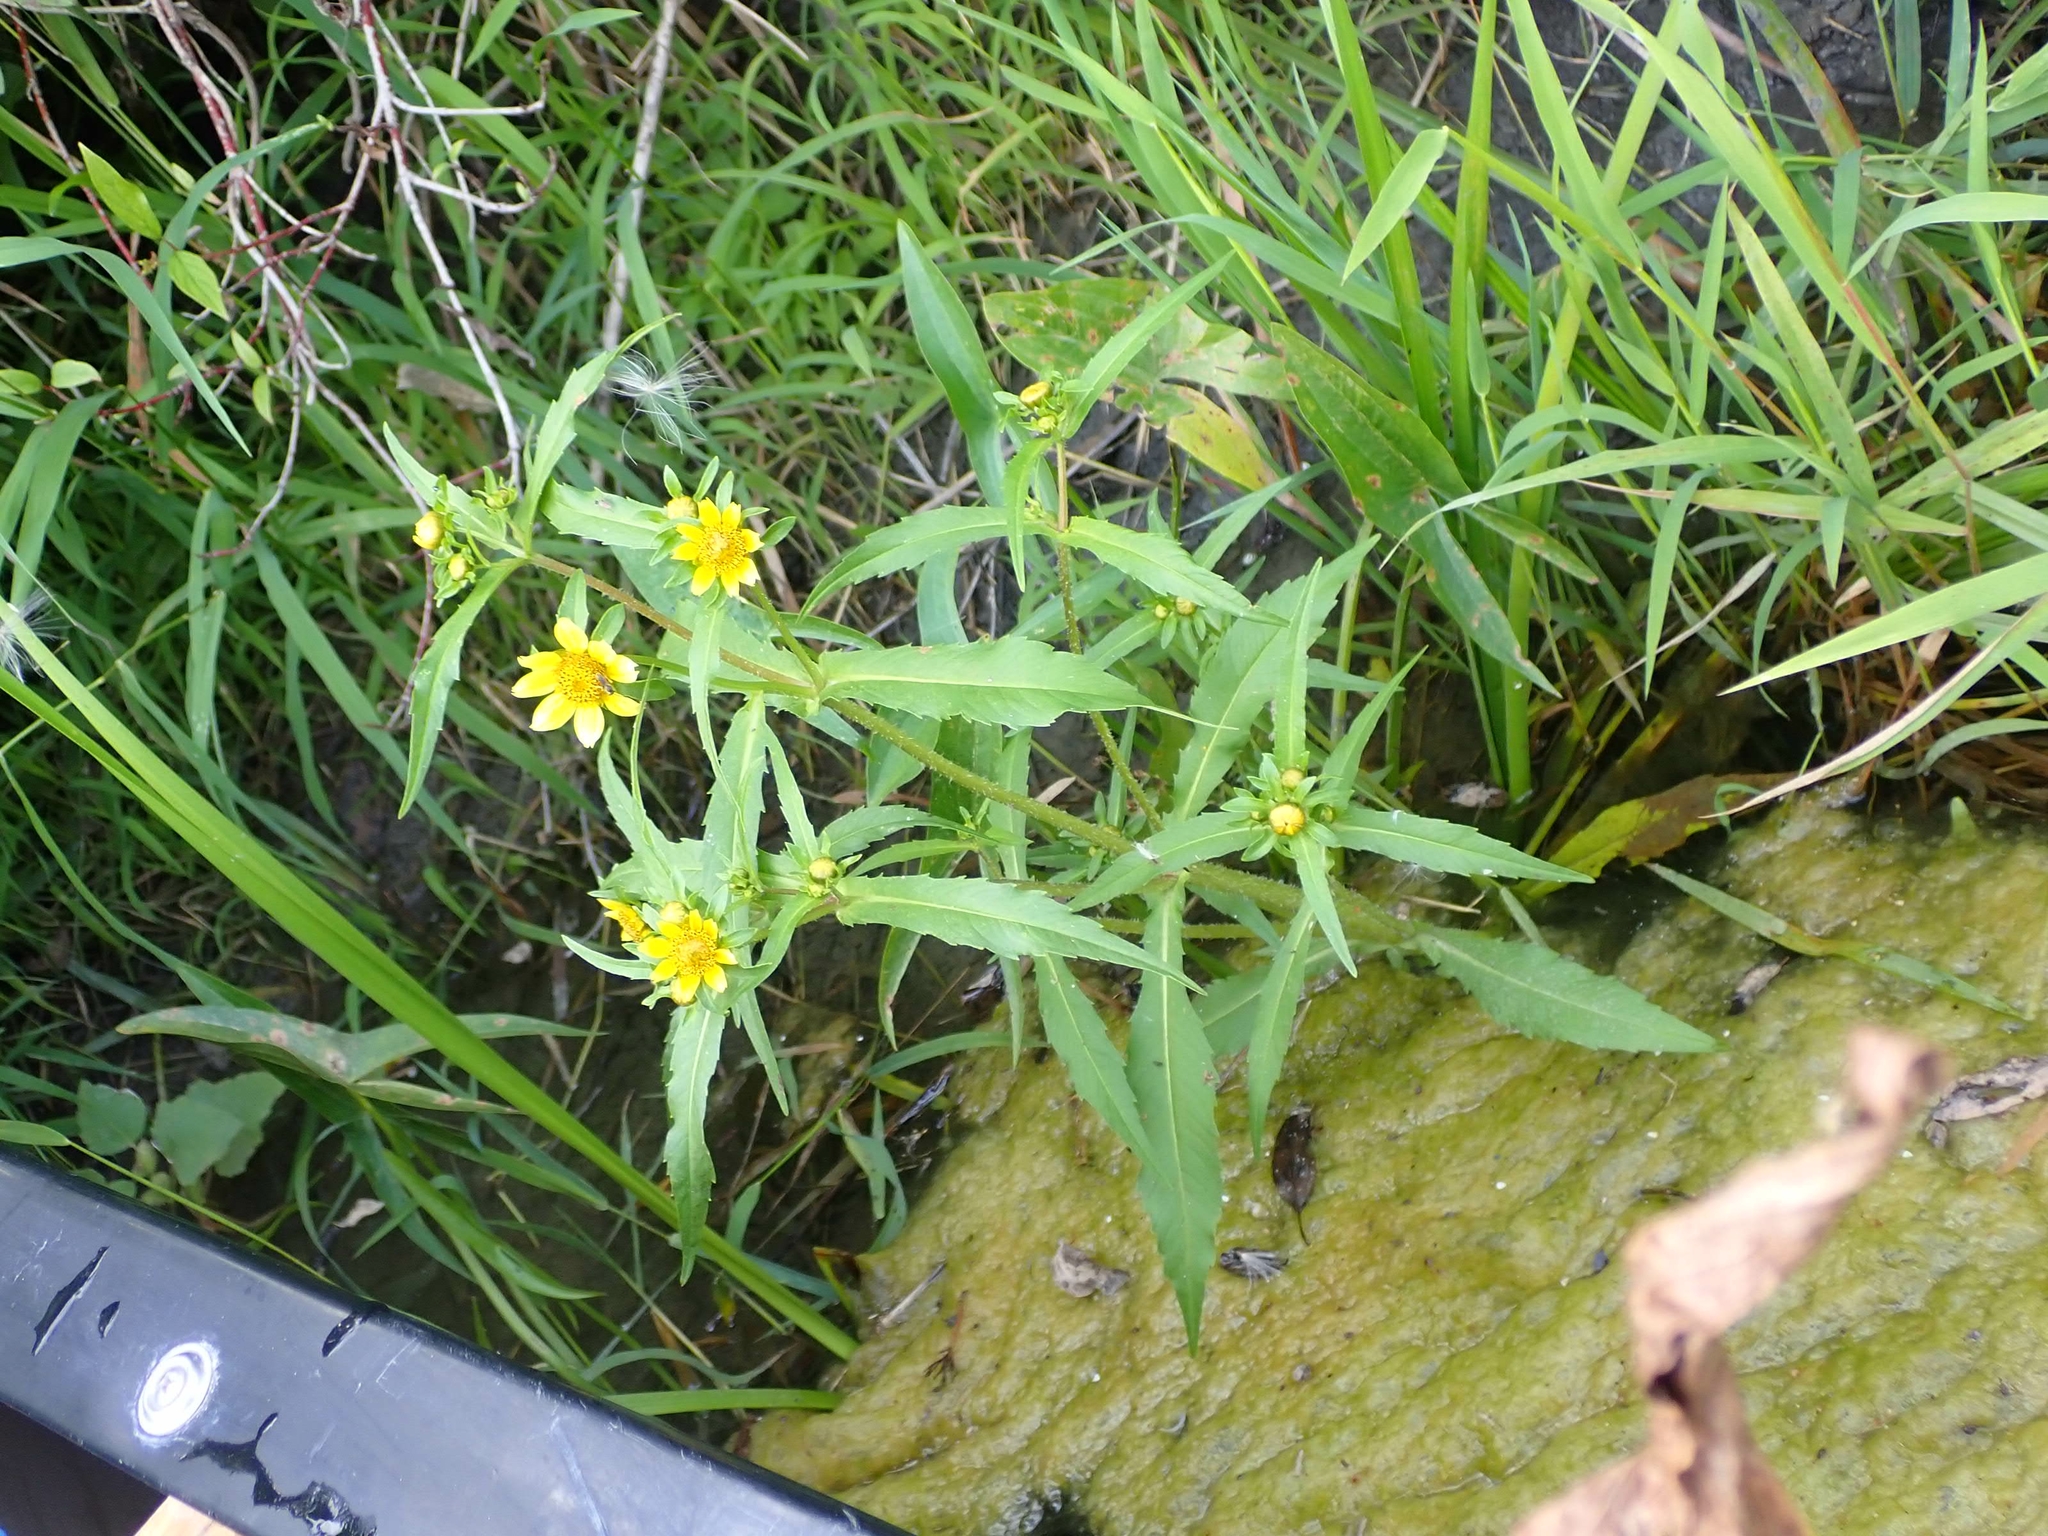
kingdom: Plantae
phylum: Tracheophyta
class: Magnoliopsida
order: Asterales
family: Asteraceae
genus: Bidens
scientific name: Bidens cernua
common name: Nodding bur-marigold
